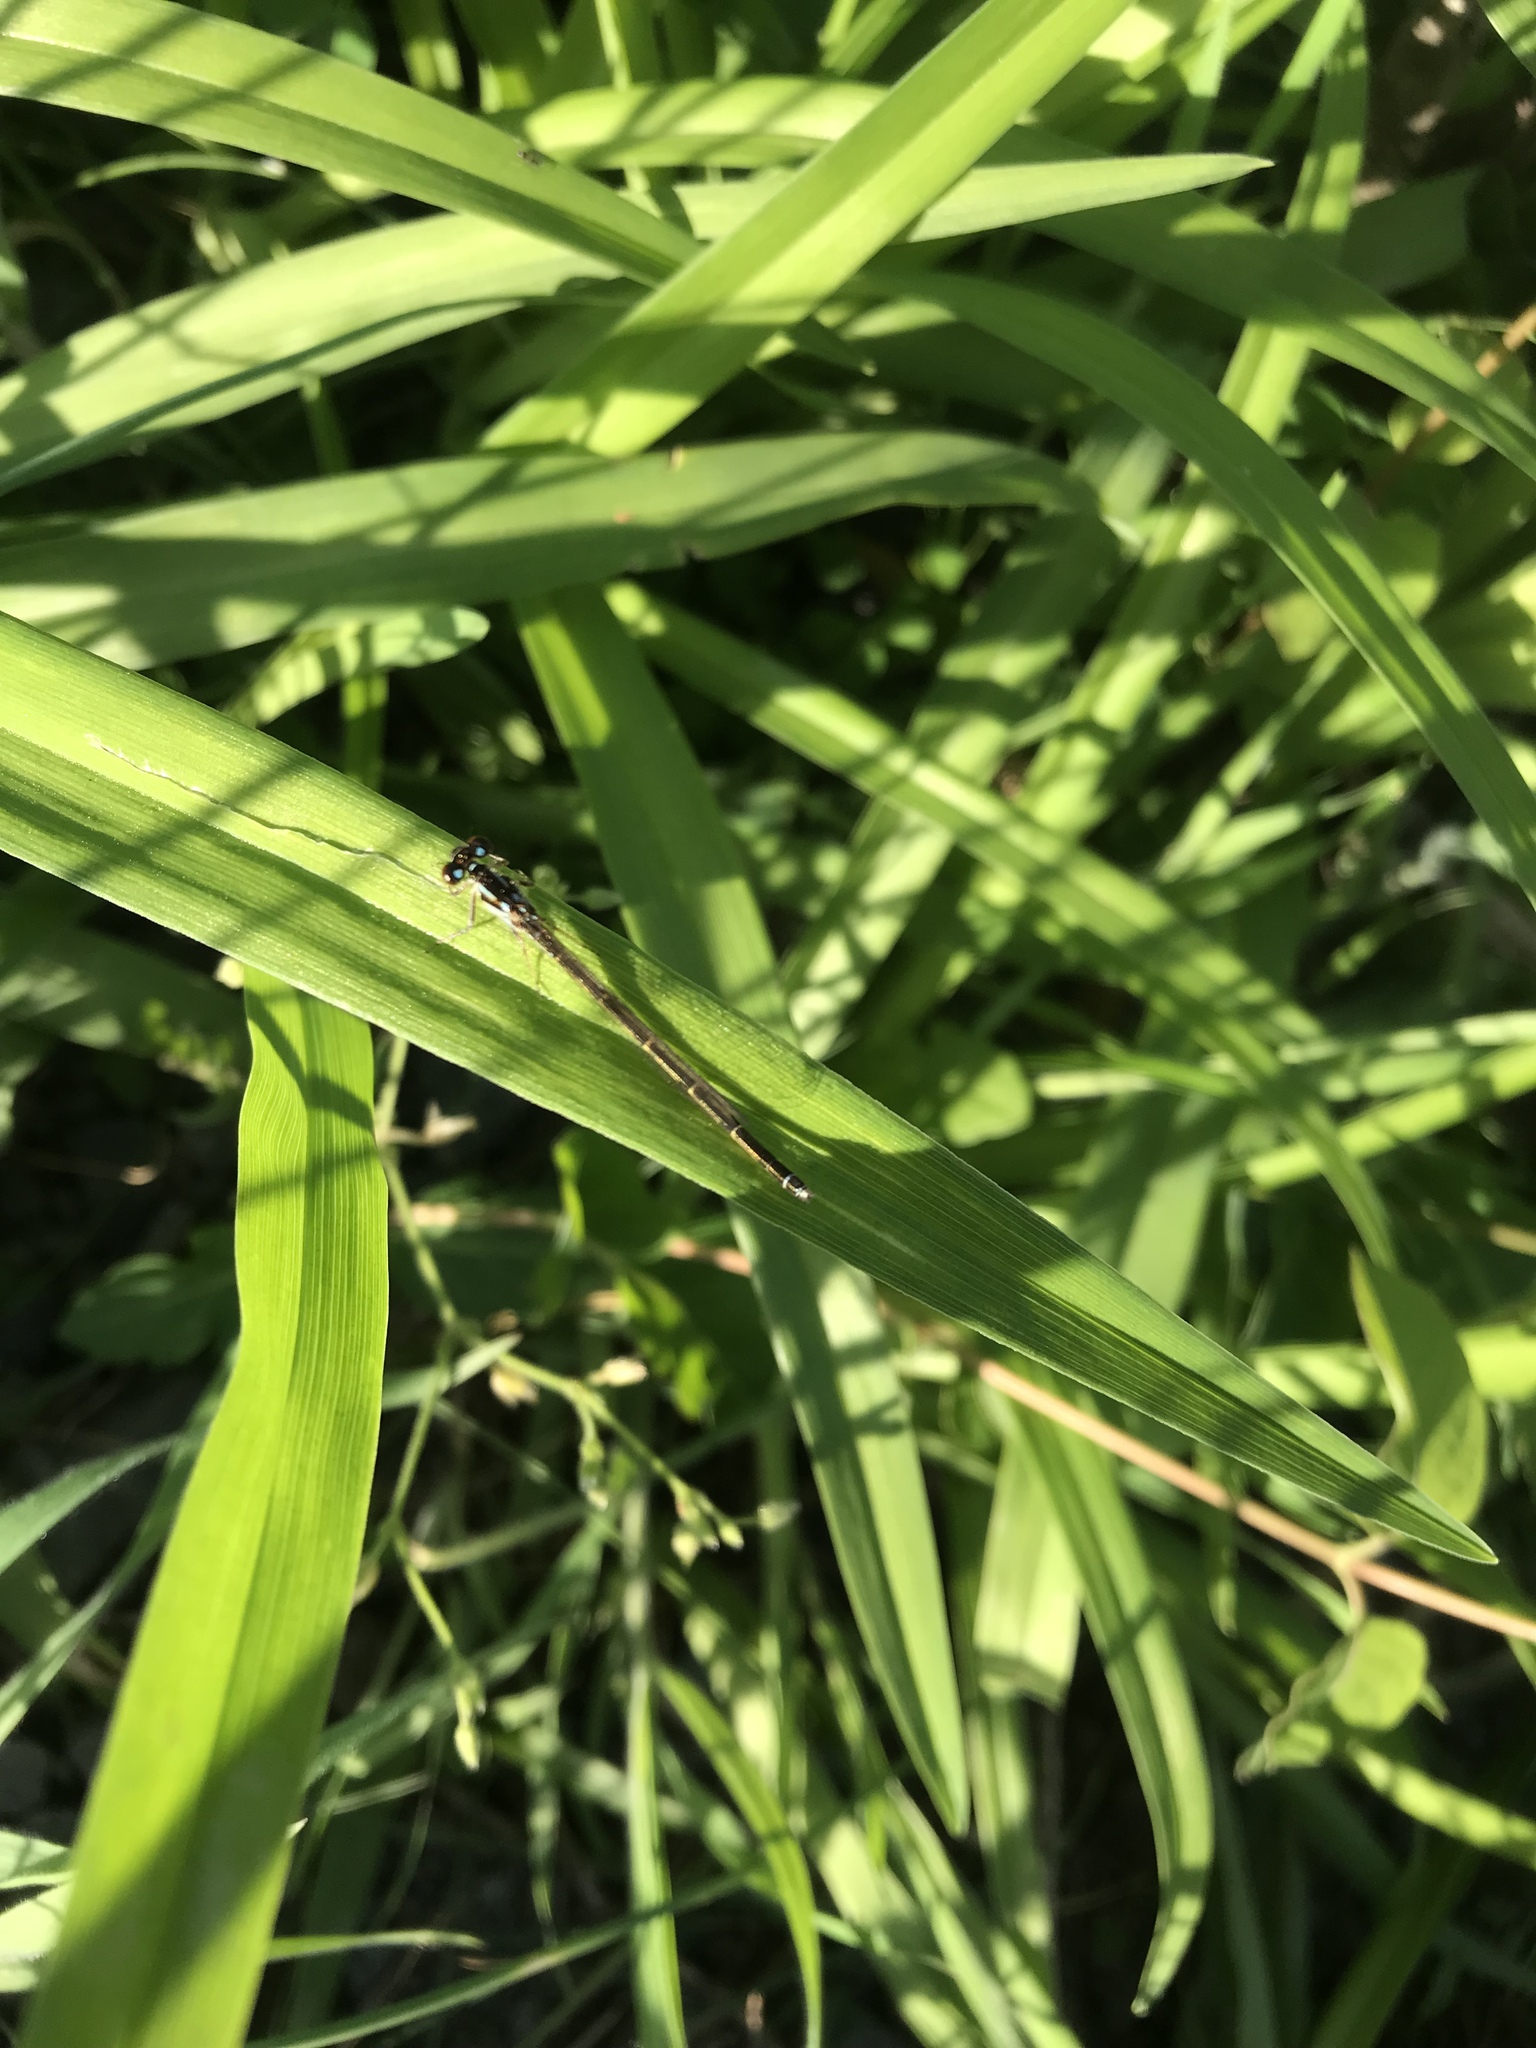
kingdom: Animalia
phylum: Arthropoda
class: Insecta
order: Odonata
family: Coenagrionidae
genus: Ischnura
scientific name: Ischnura posita
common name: Fragile forktail
